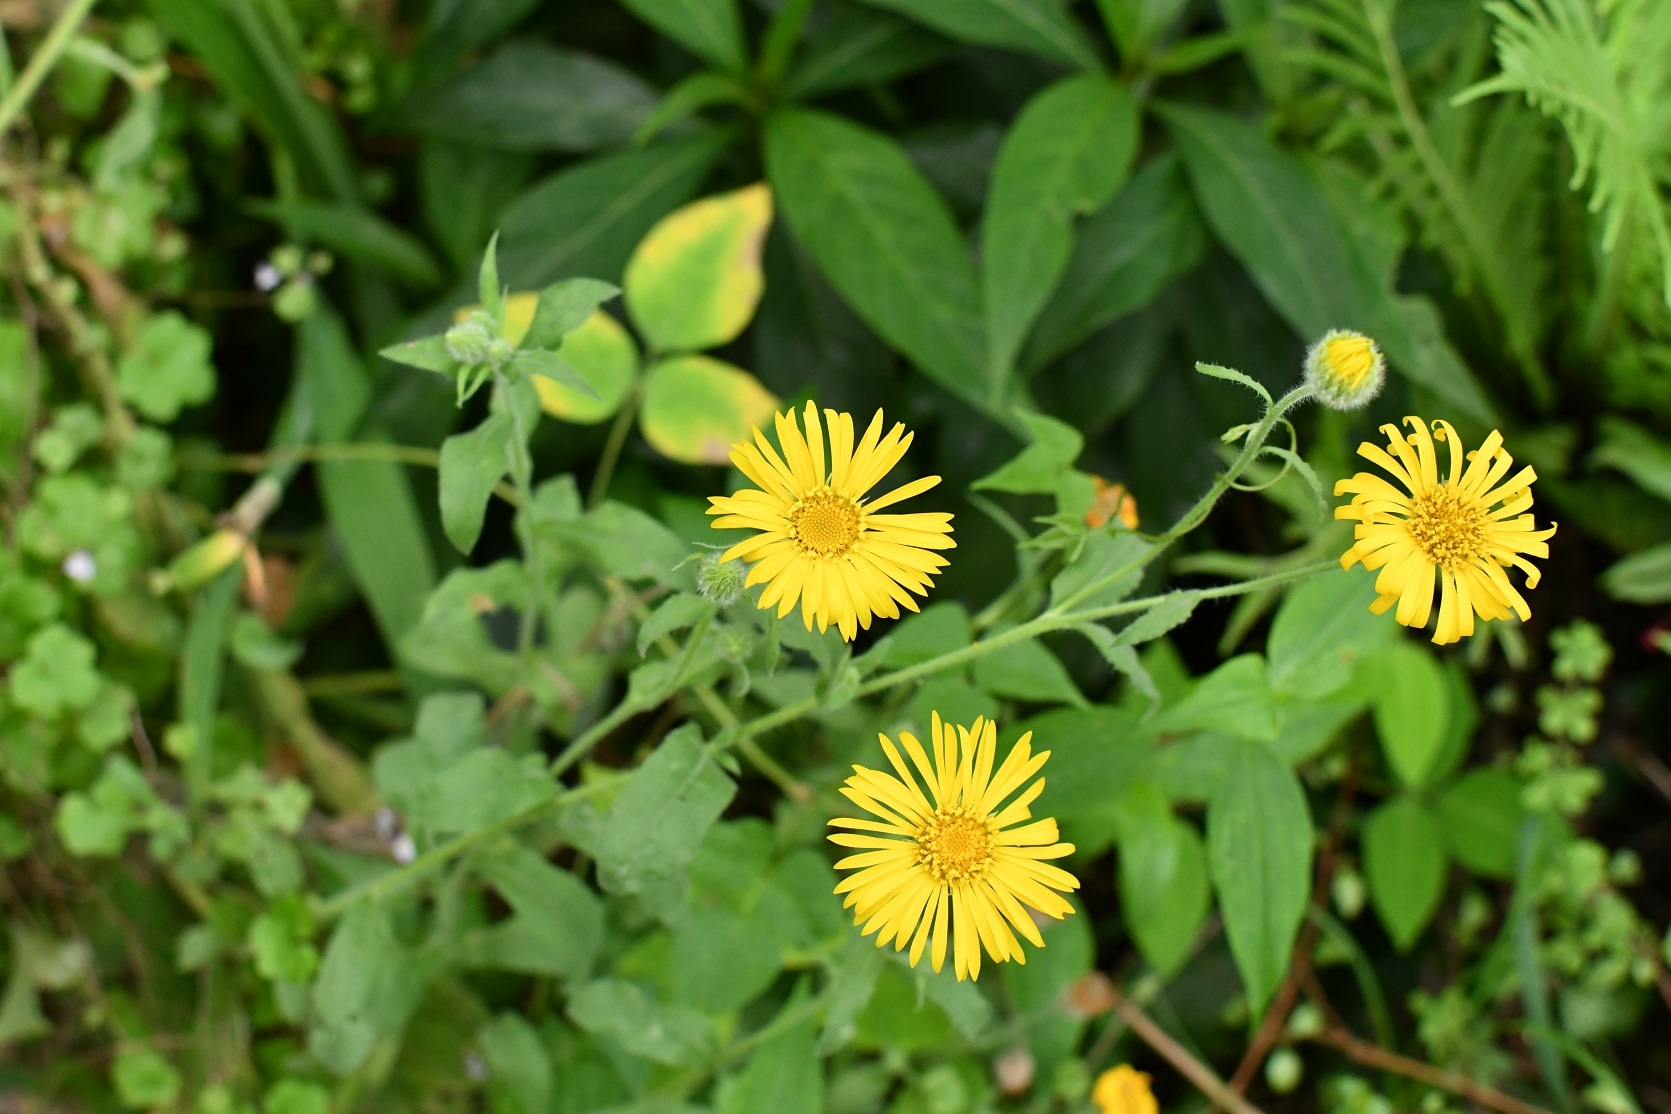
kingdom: Plantae
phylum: Tracheophyta
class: Magnoliopsida
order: Asterales
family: Asteraceae
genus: Heterotheca
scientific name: Heterotheca inuloides
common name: False arnica
